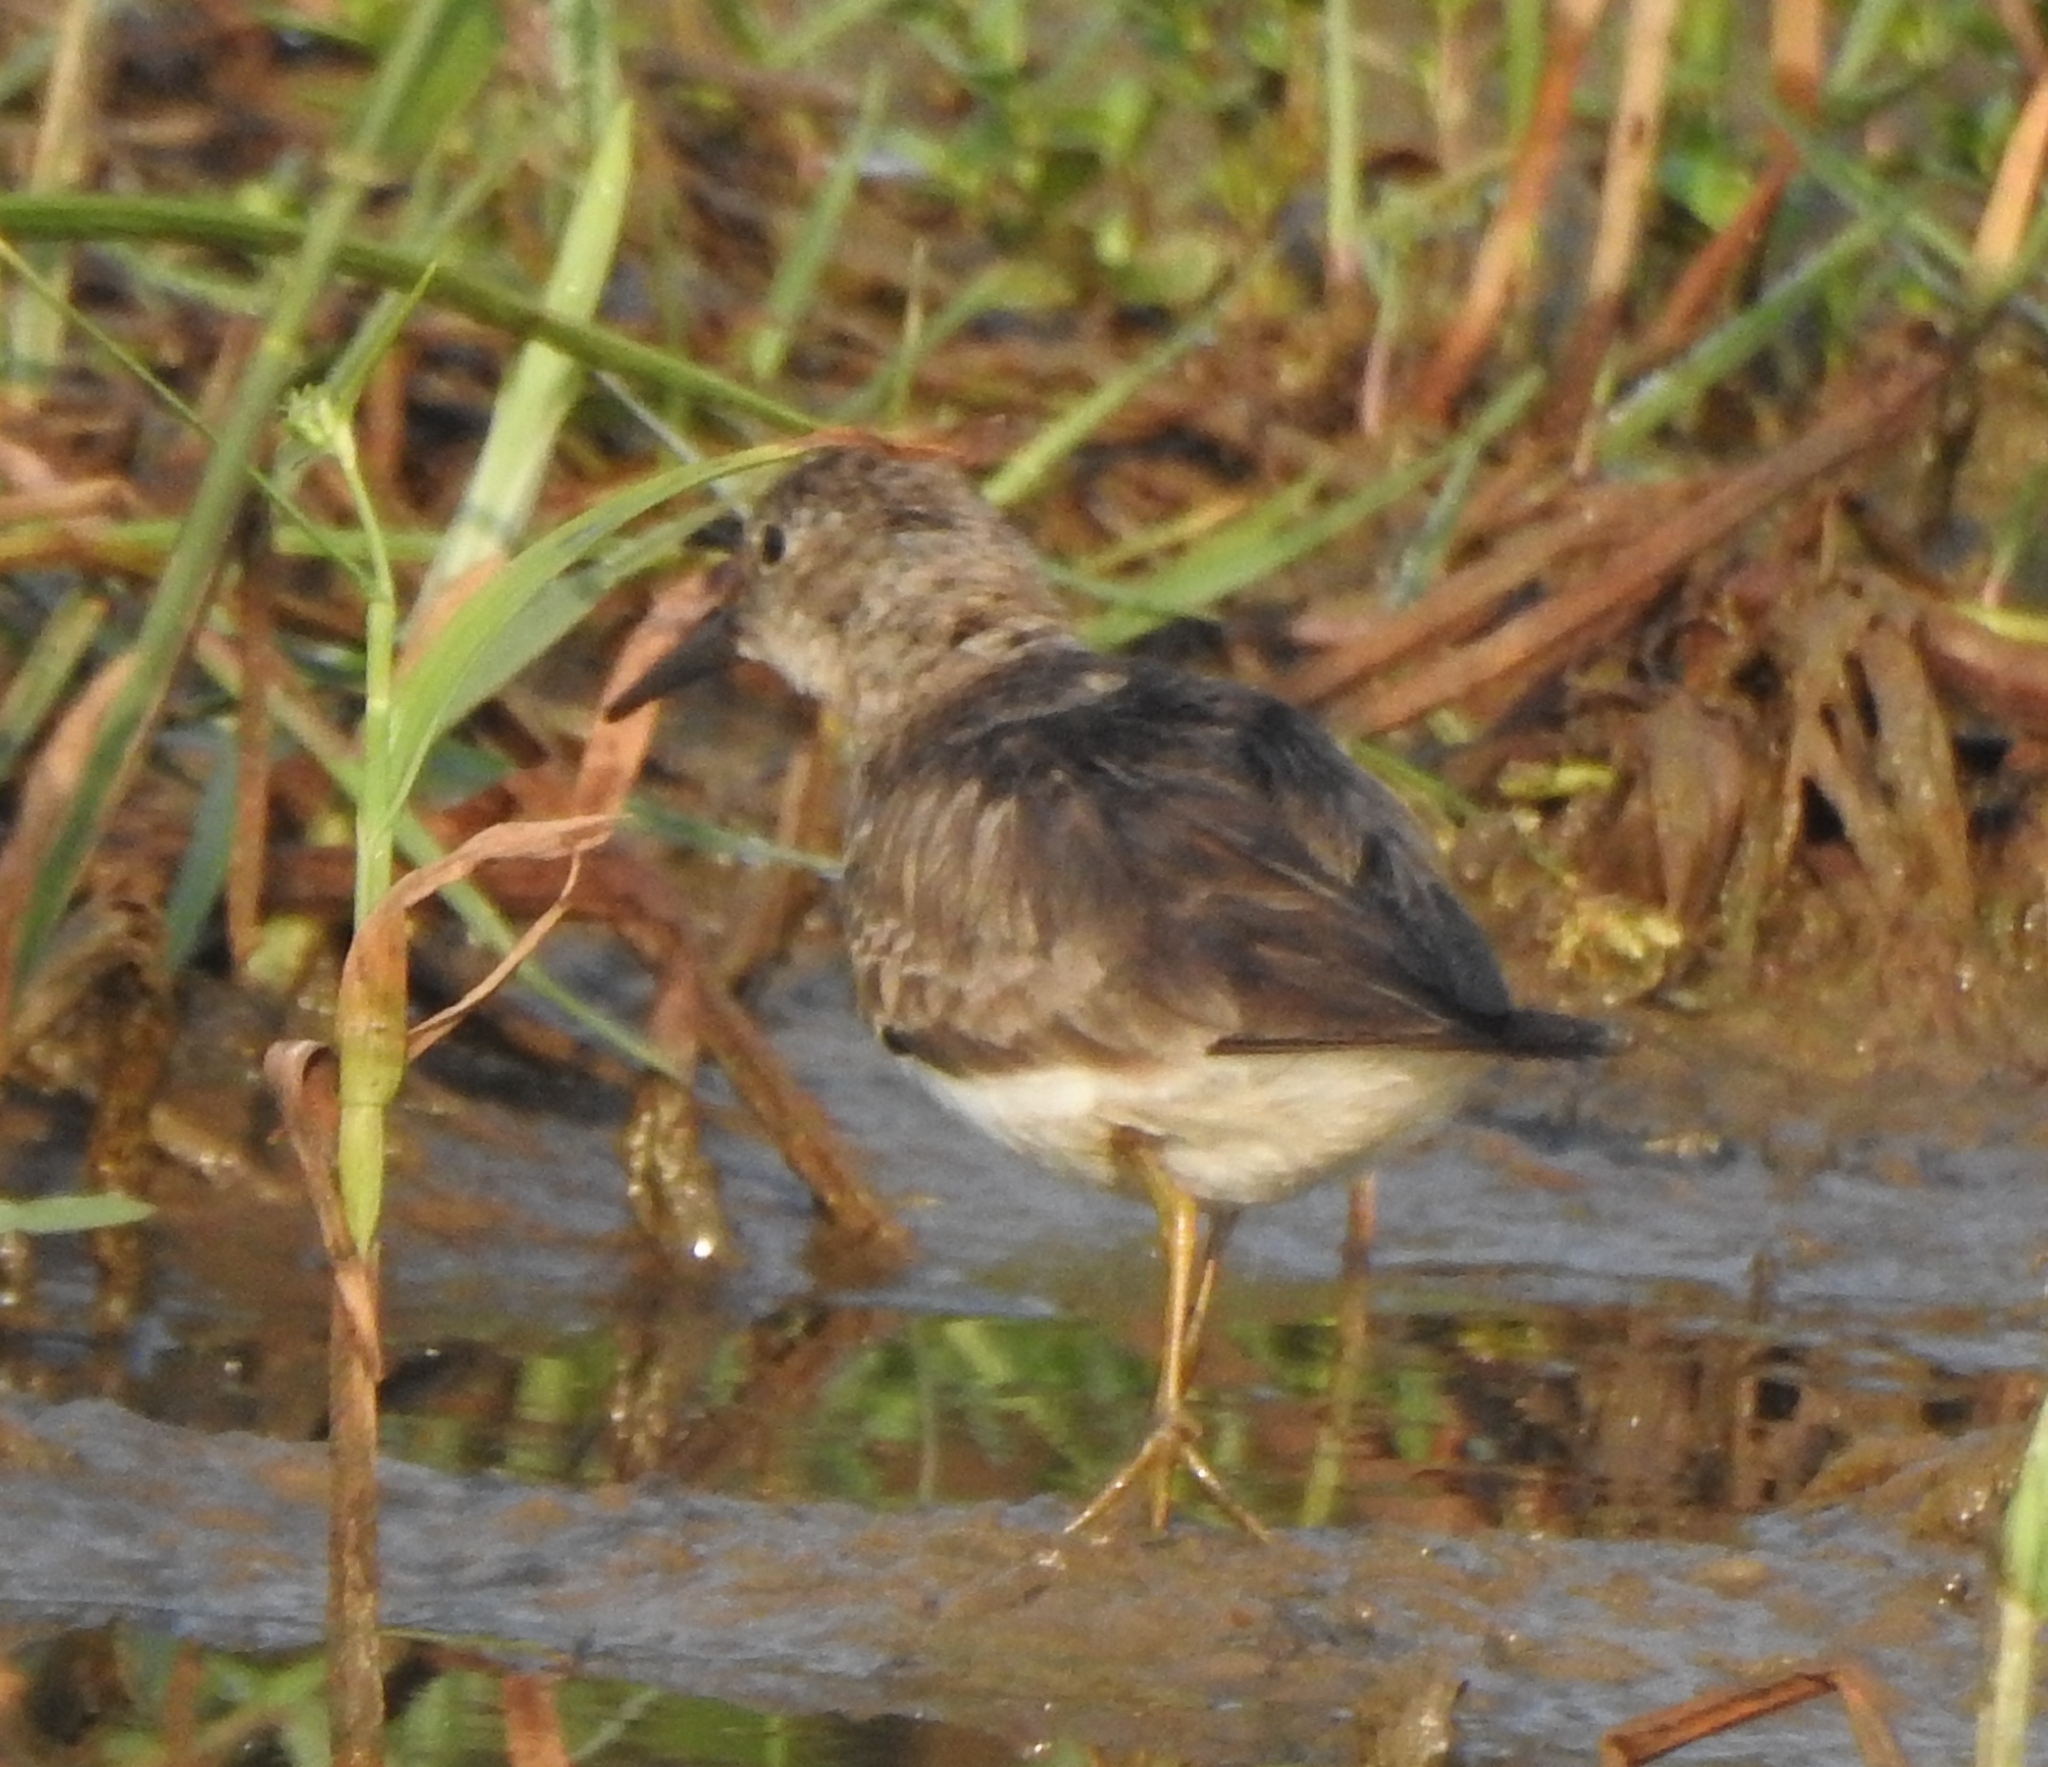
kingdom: Animalia
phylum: Chordata
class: Aves
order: Charadriiformes
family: Scolopacidae
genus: Calidris
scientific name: Calidris temminckii
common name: Temminck's stint
